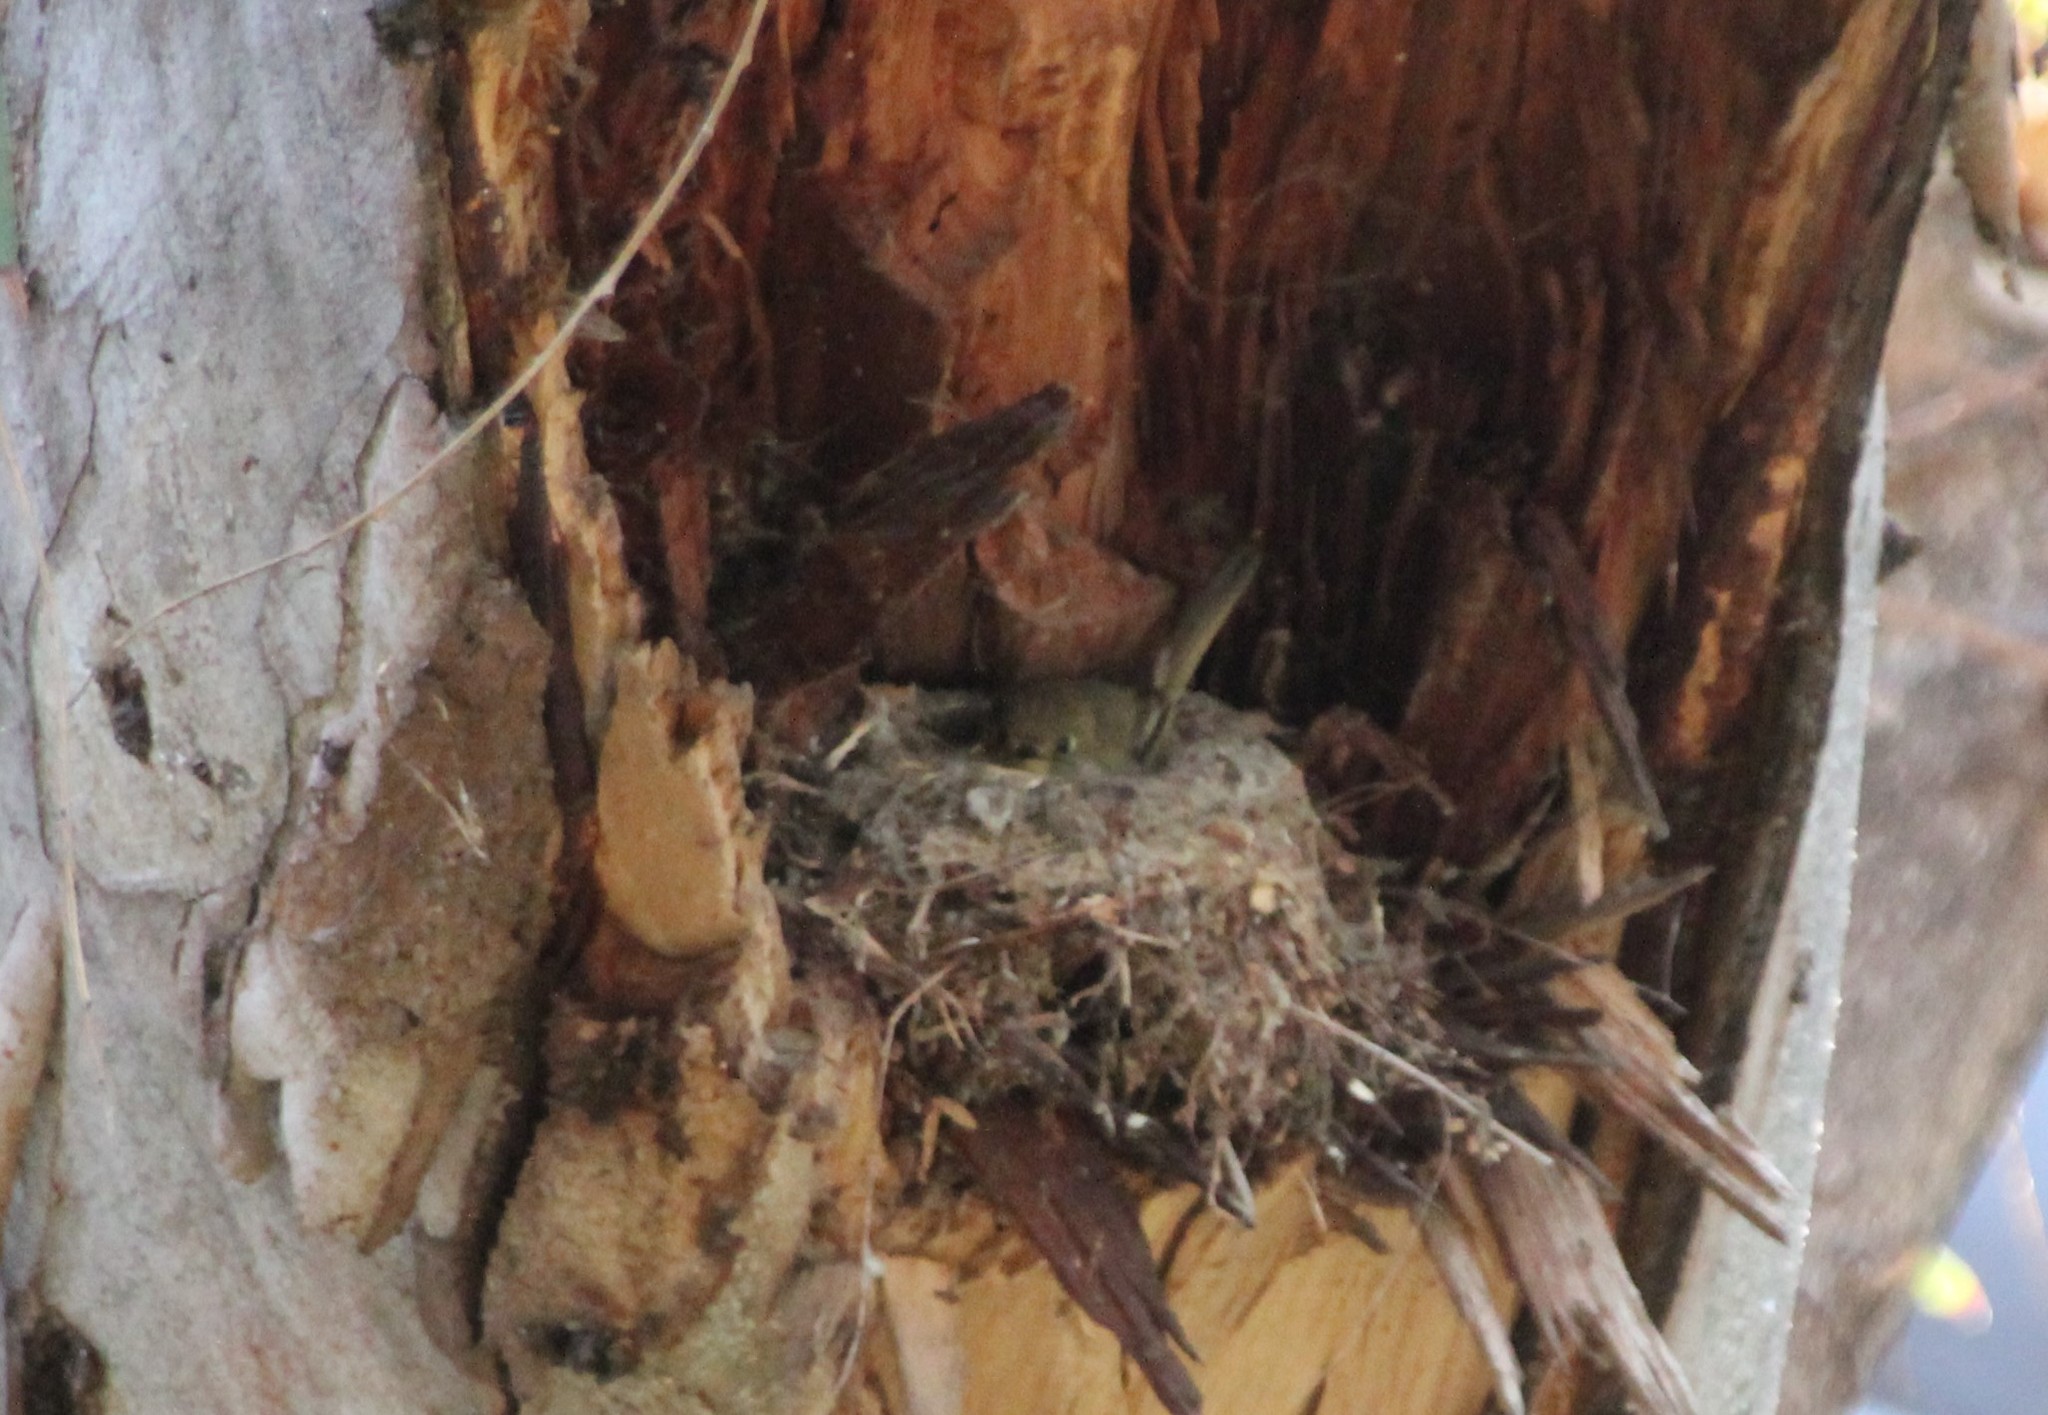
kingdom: Animalia
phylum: Chordata
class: Aves
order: Passeriformes
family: Tyrannidae
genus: Empidonax
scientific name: Empidonax difficilis
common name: Pacific-slope flycatcher
